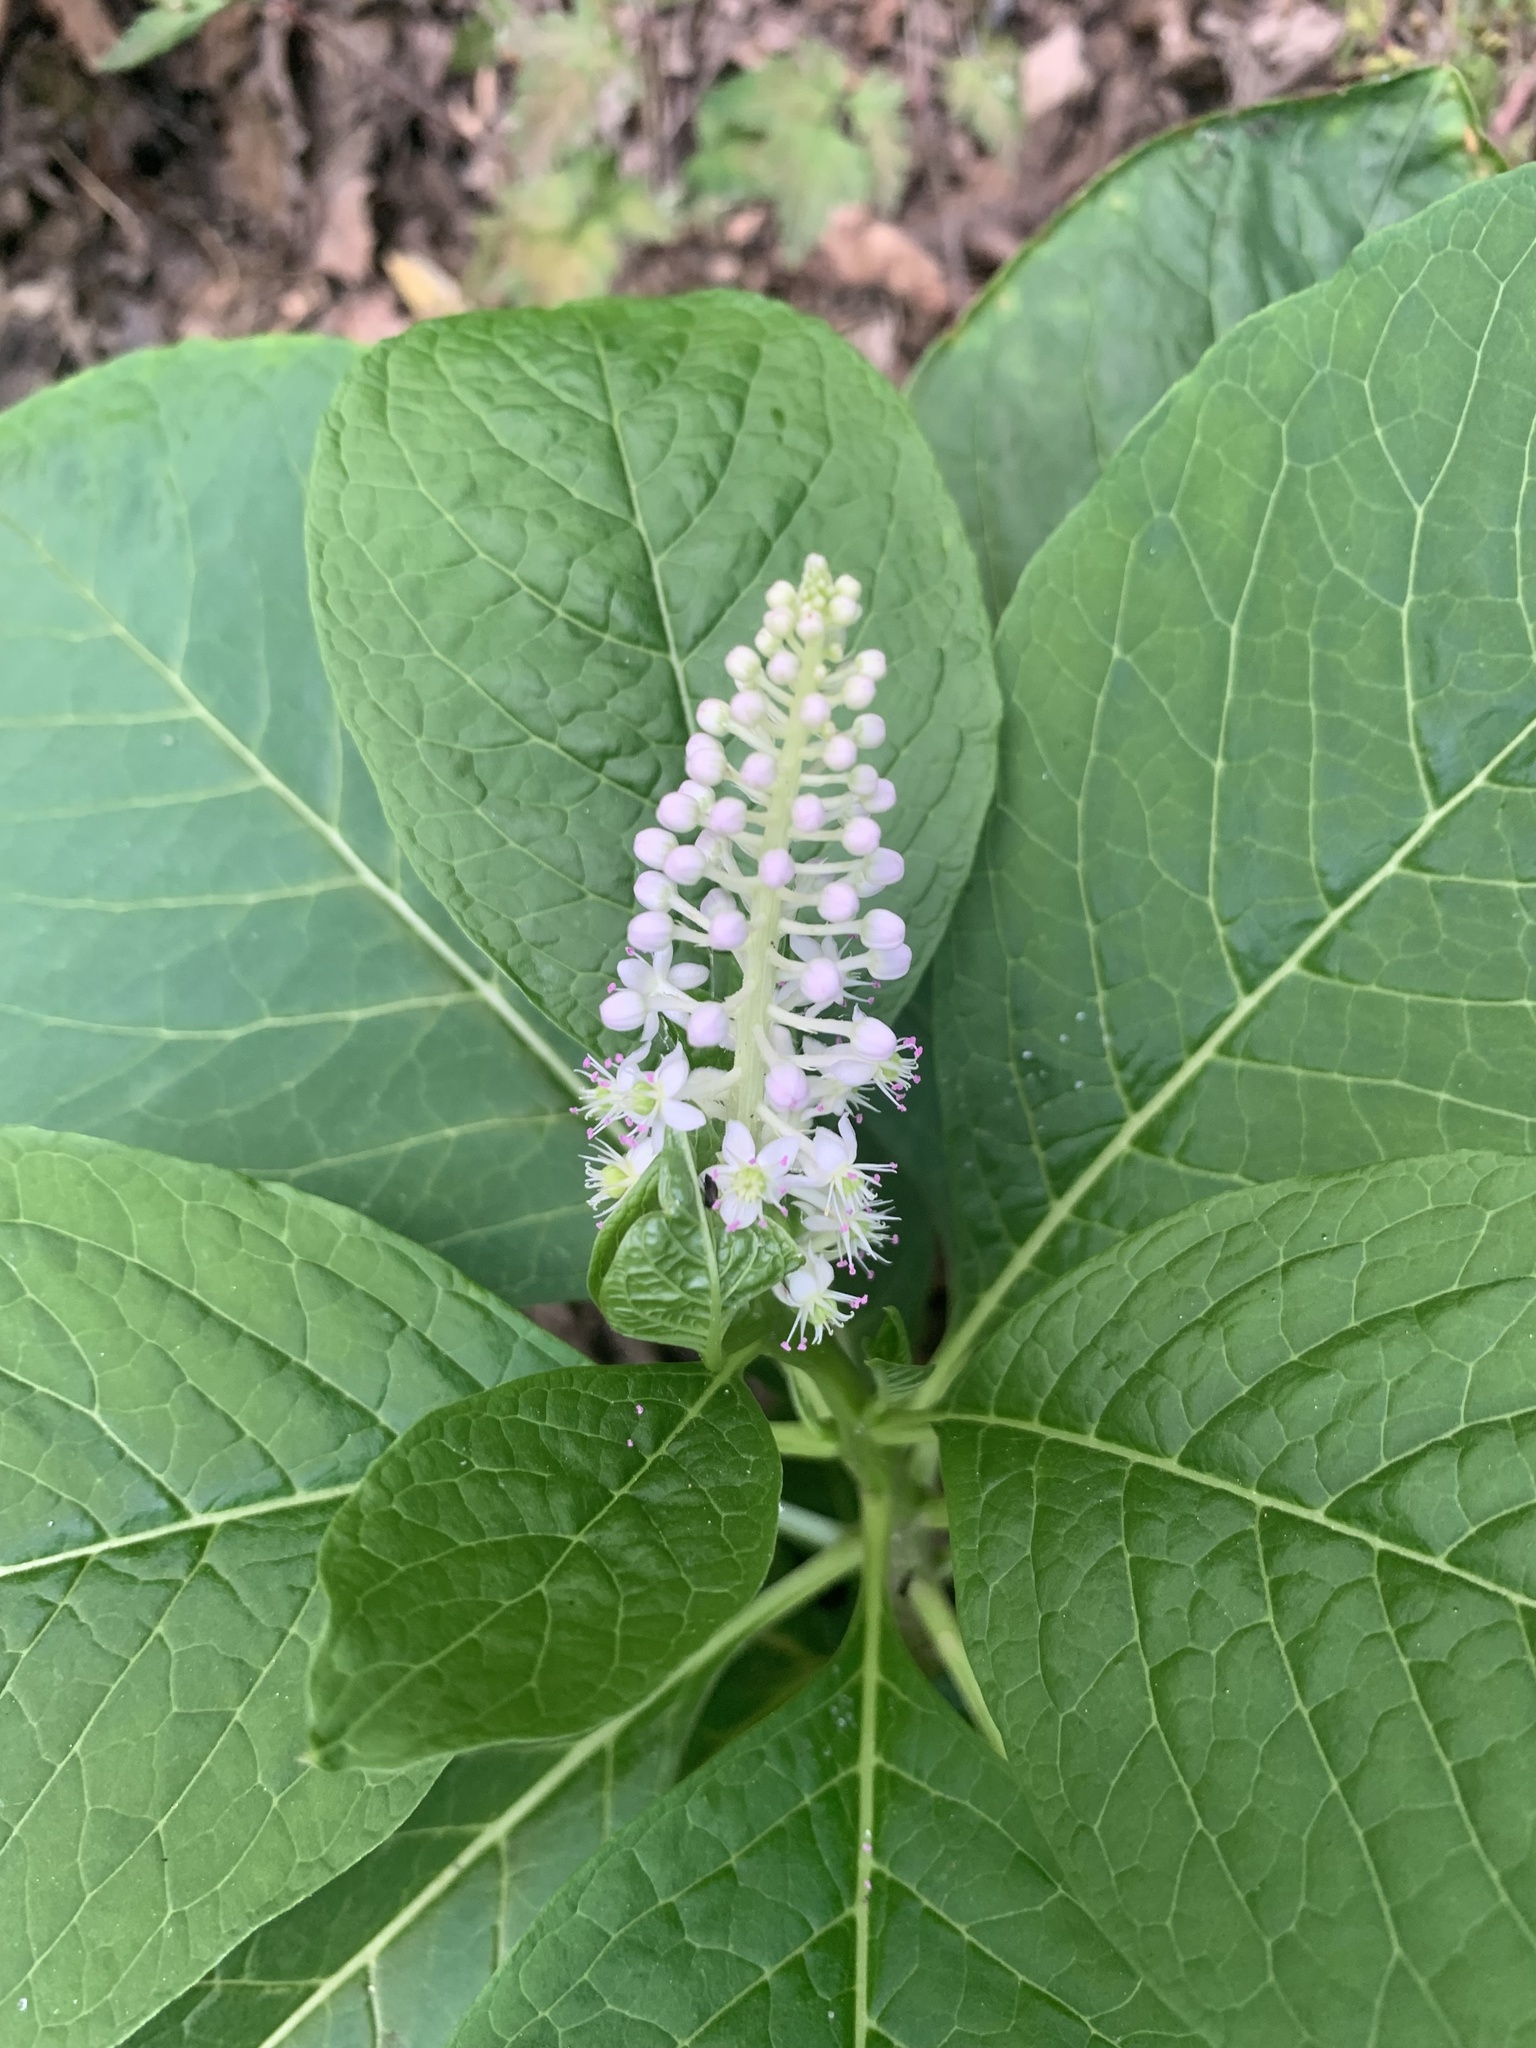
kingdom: Plantae
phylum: Tracheophyta
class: Magnoliopsida
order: Caryophyllales
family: Phytolaccaceae
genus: Phytolacca
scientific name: Phytolacca acinosa
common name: Indian pokeweed
